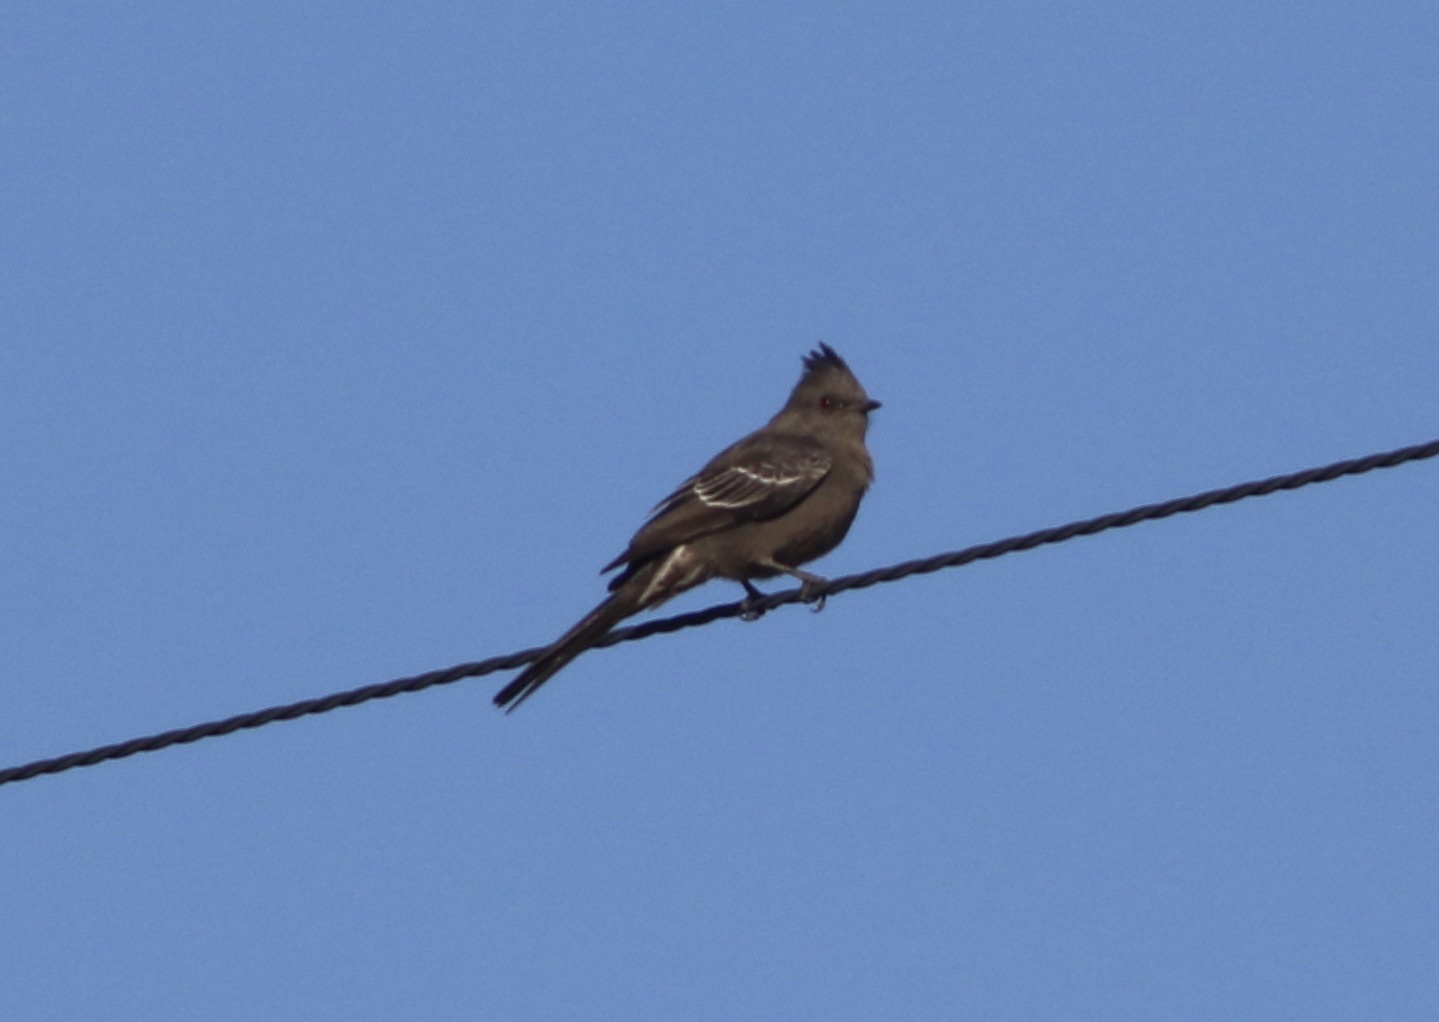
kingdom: Animalia
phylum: Chordata
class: Aves
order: Passeriformes
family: Ptilogonatidae
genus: Phainopepla
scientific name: Phainopepla nitens
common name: Phainopepla
